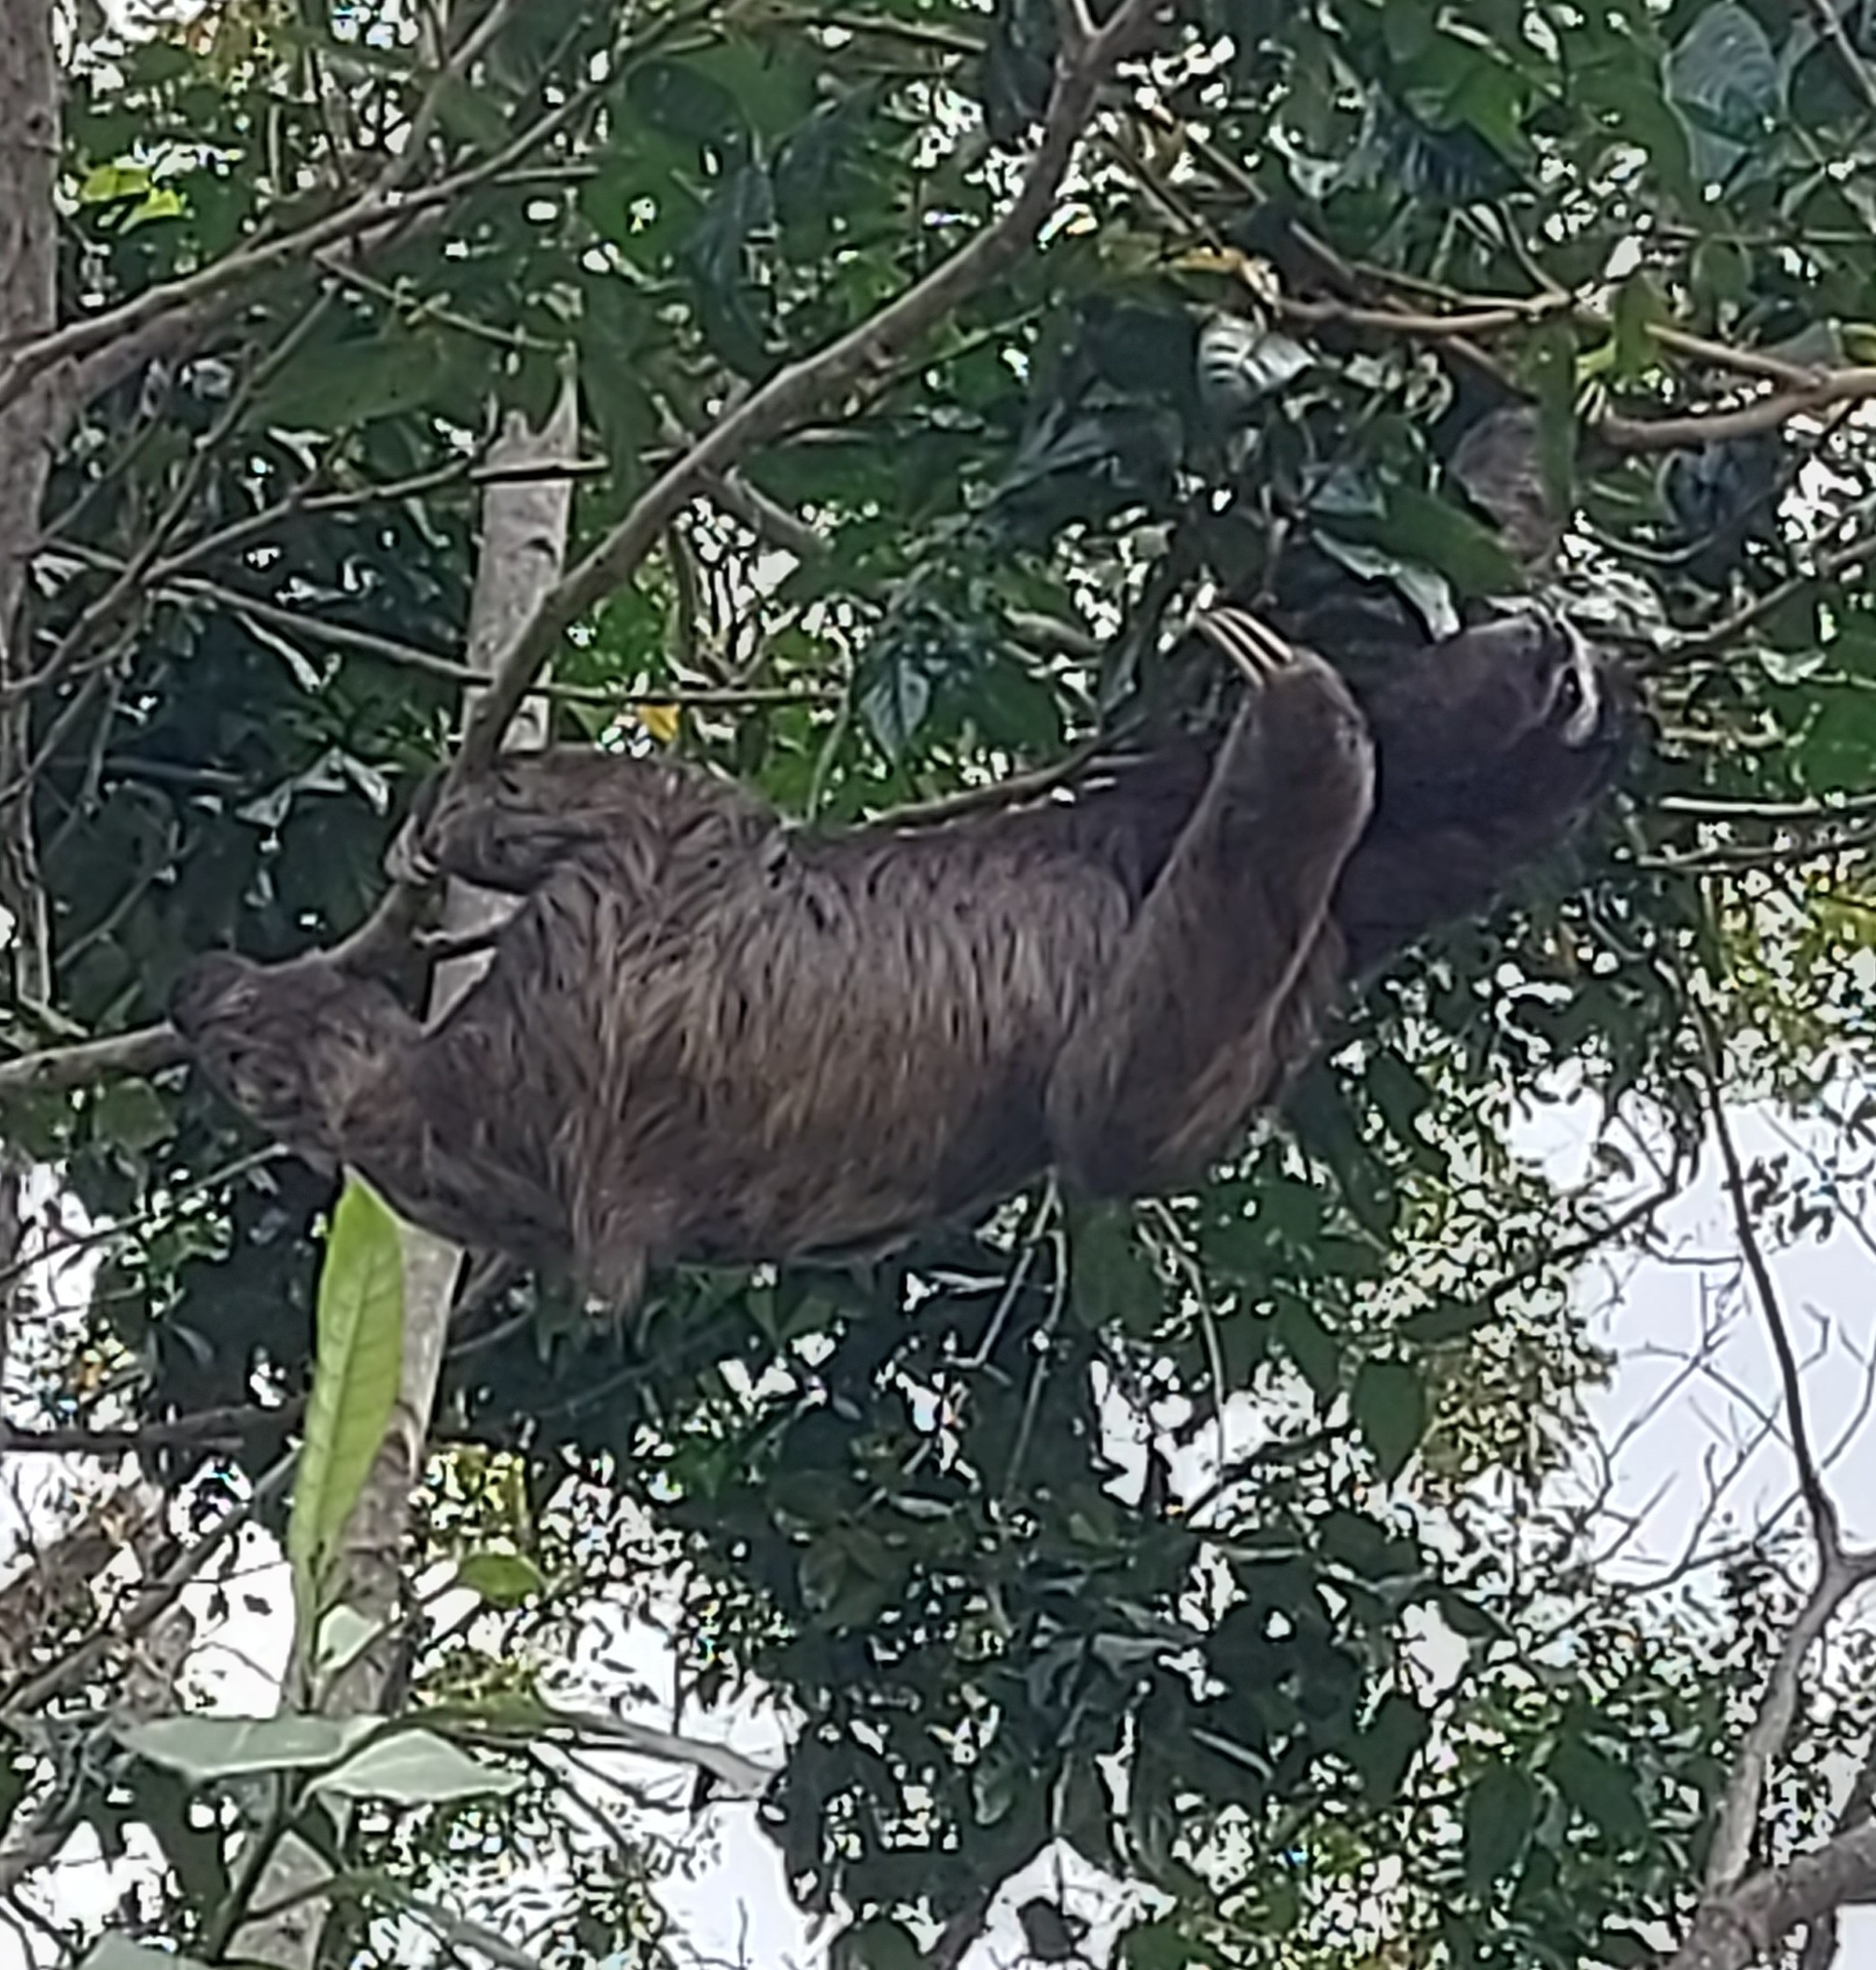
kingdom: Animalia
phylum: Chordata
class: Mammalia
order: Pilosa
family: Bradypodidae
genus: Bradypus
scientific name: Bradypus variegatus
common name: Brown-throated three-toed sloth
